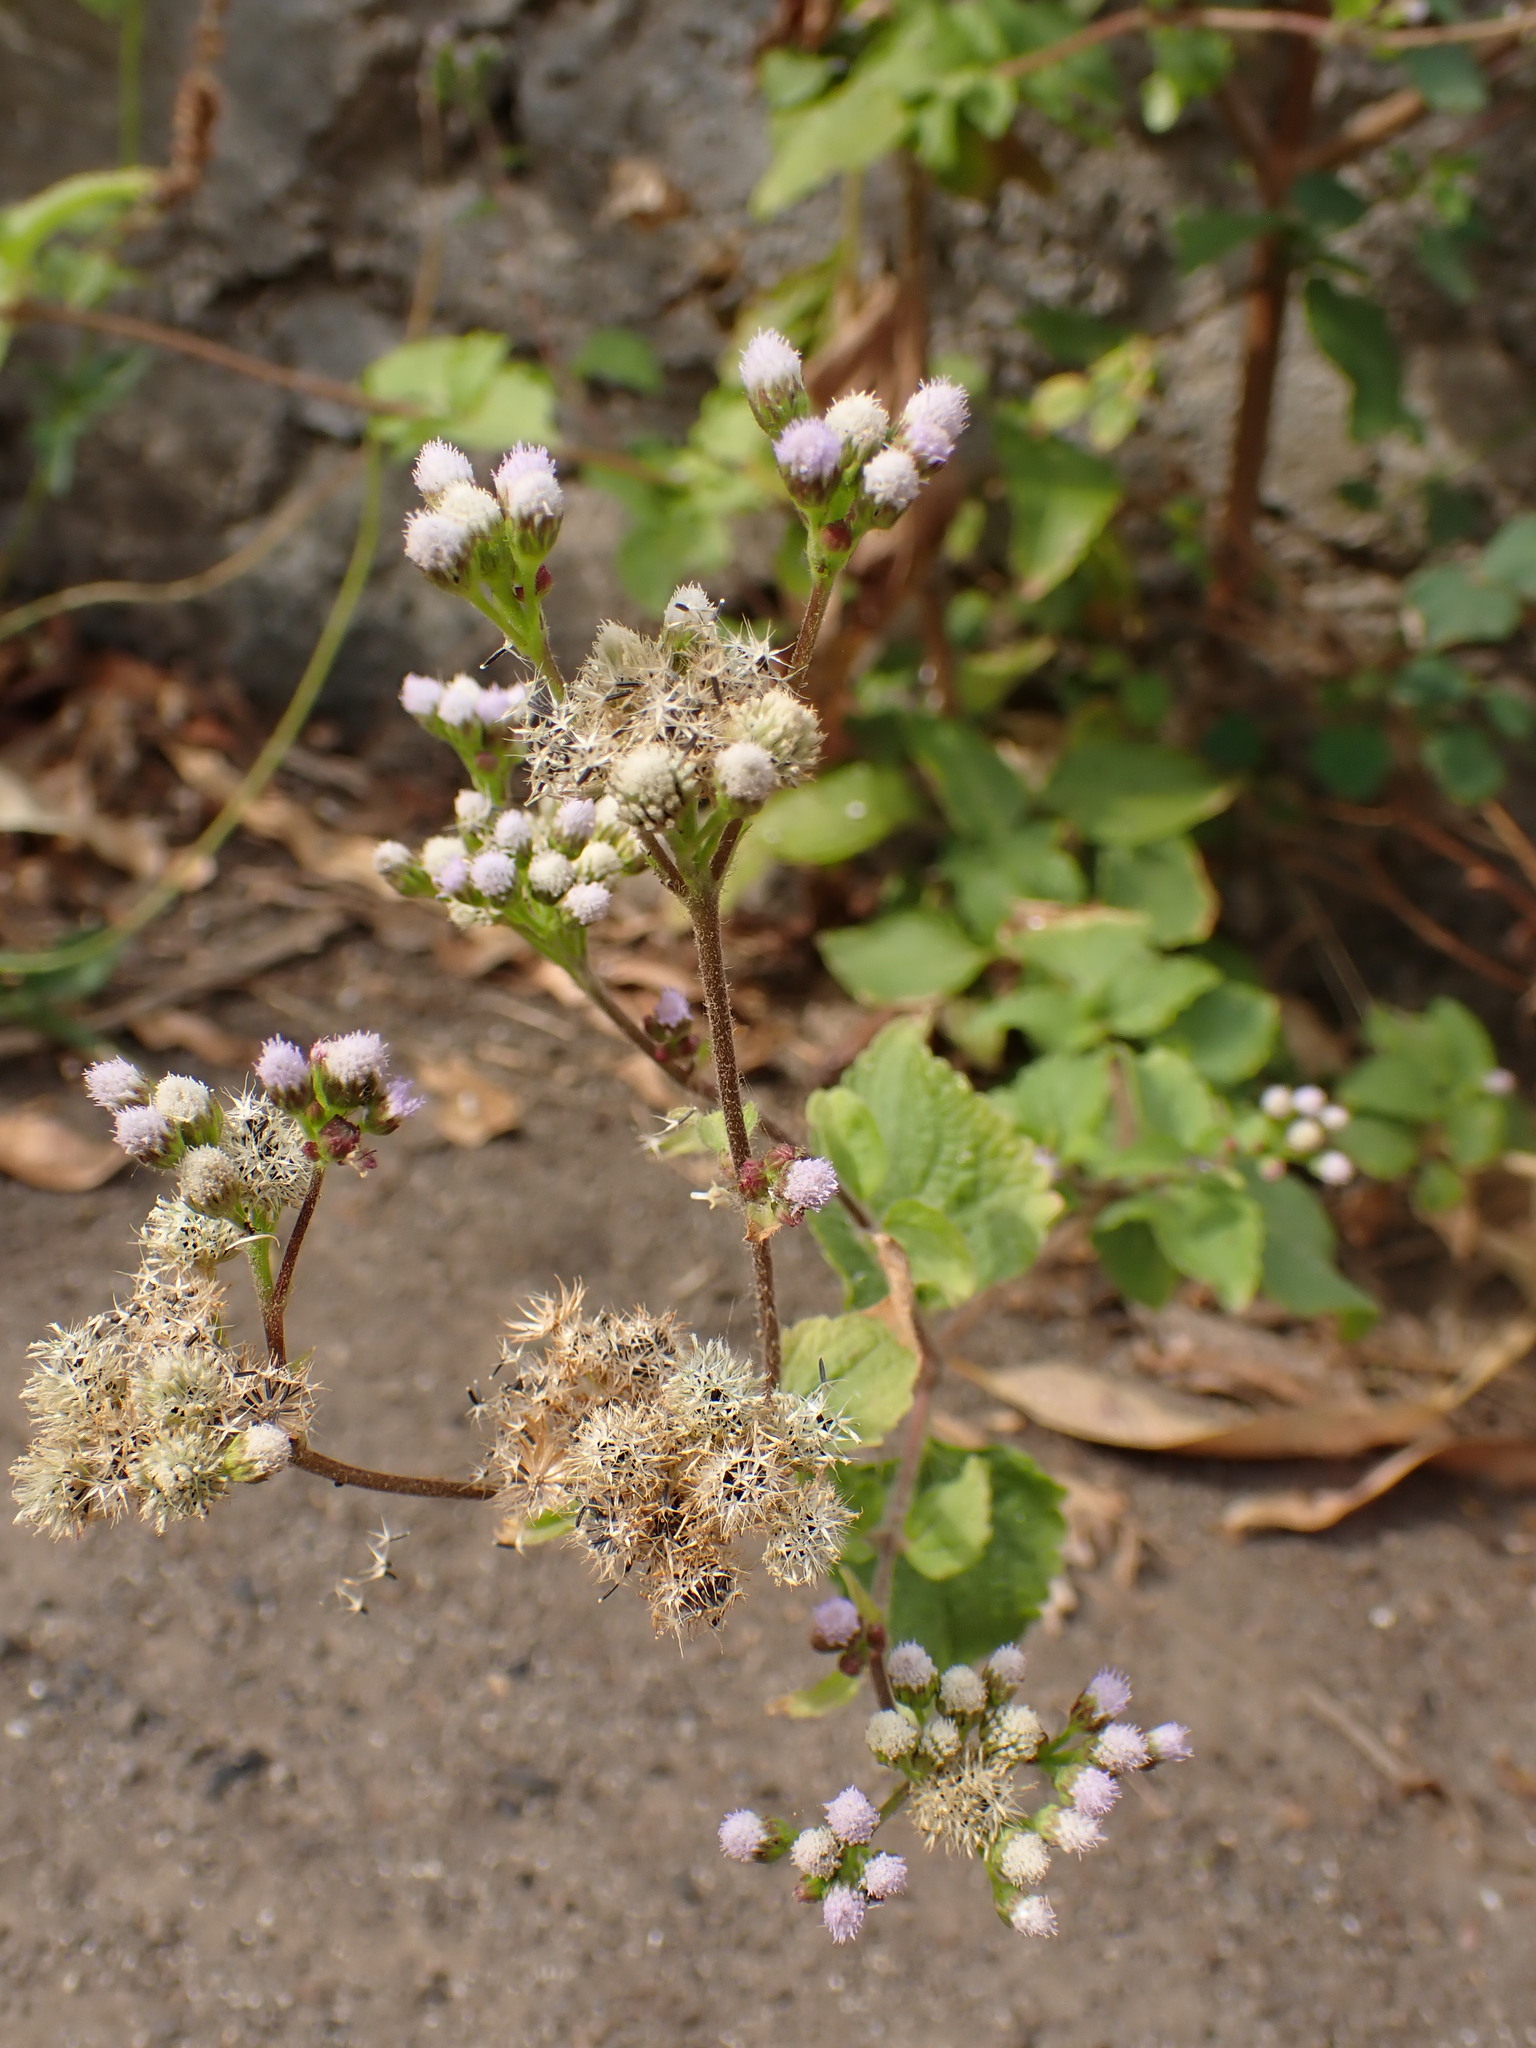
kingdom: Plantae
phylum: Tracheophyta
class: Magnoliopsida
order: Asterales
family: Asteraceae
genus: Ageratum
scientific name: Ageratum conyzoides
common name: Tropical whiteweed
